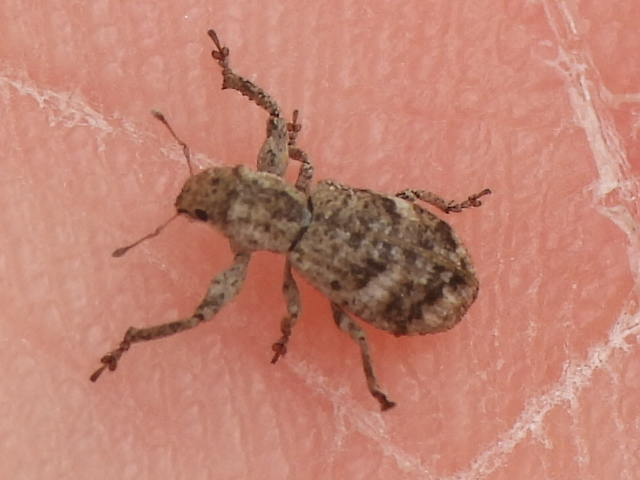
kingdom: Animalia
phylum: Arthropoda
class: Insecta
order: Coleoptera
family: Curculionidae
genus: Pandeleteius
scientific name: Pandeleteius cinereus
